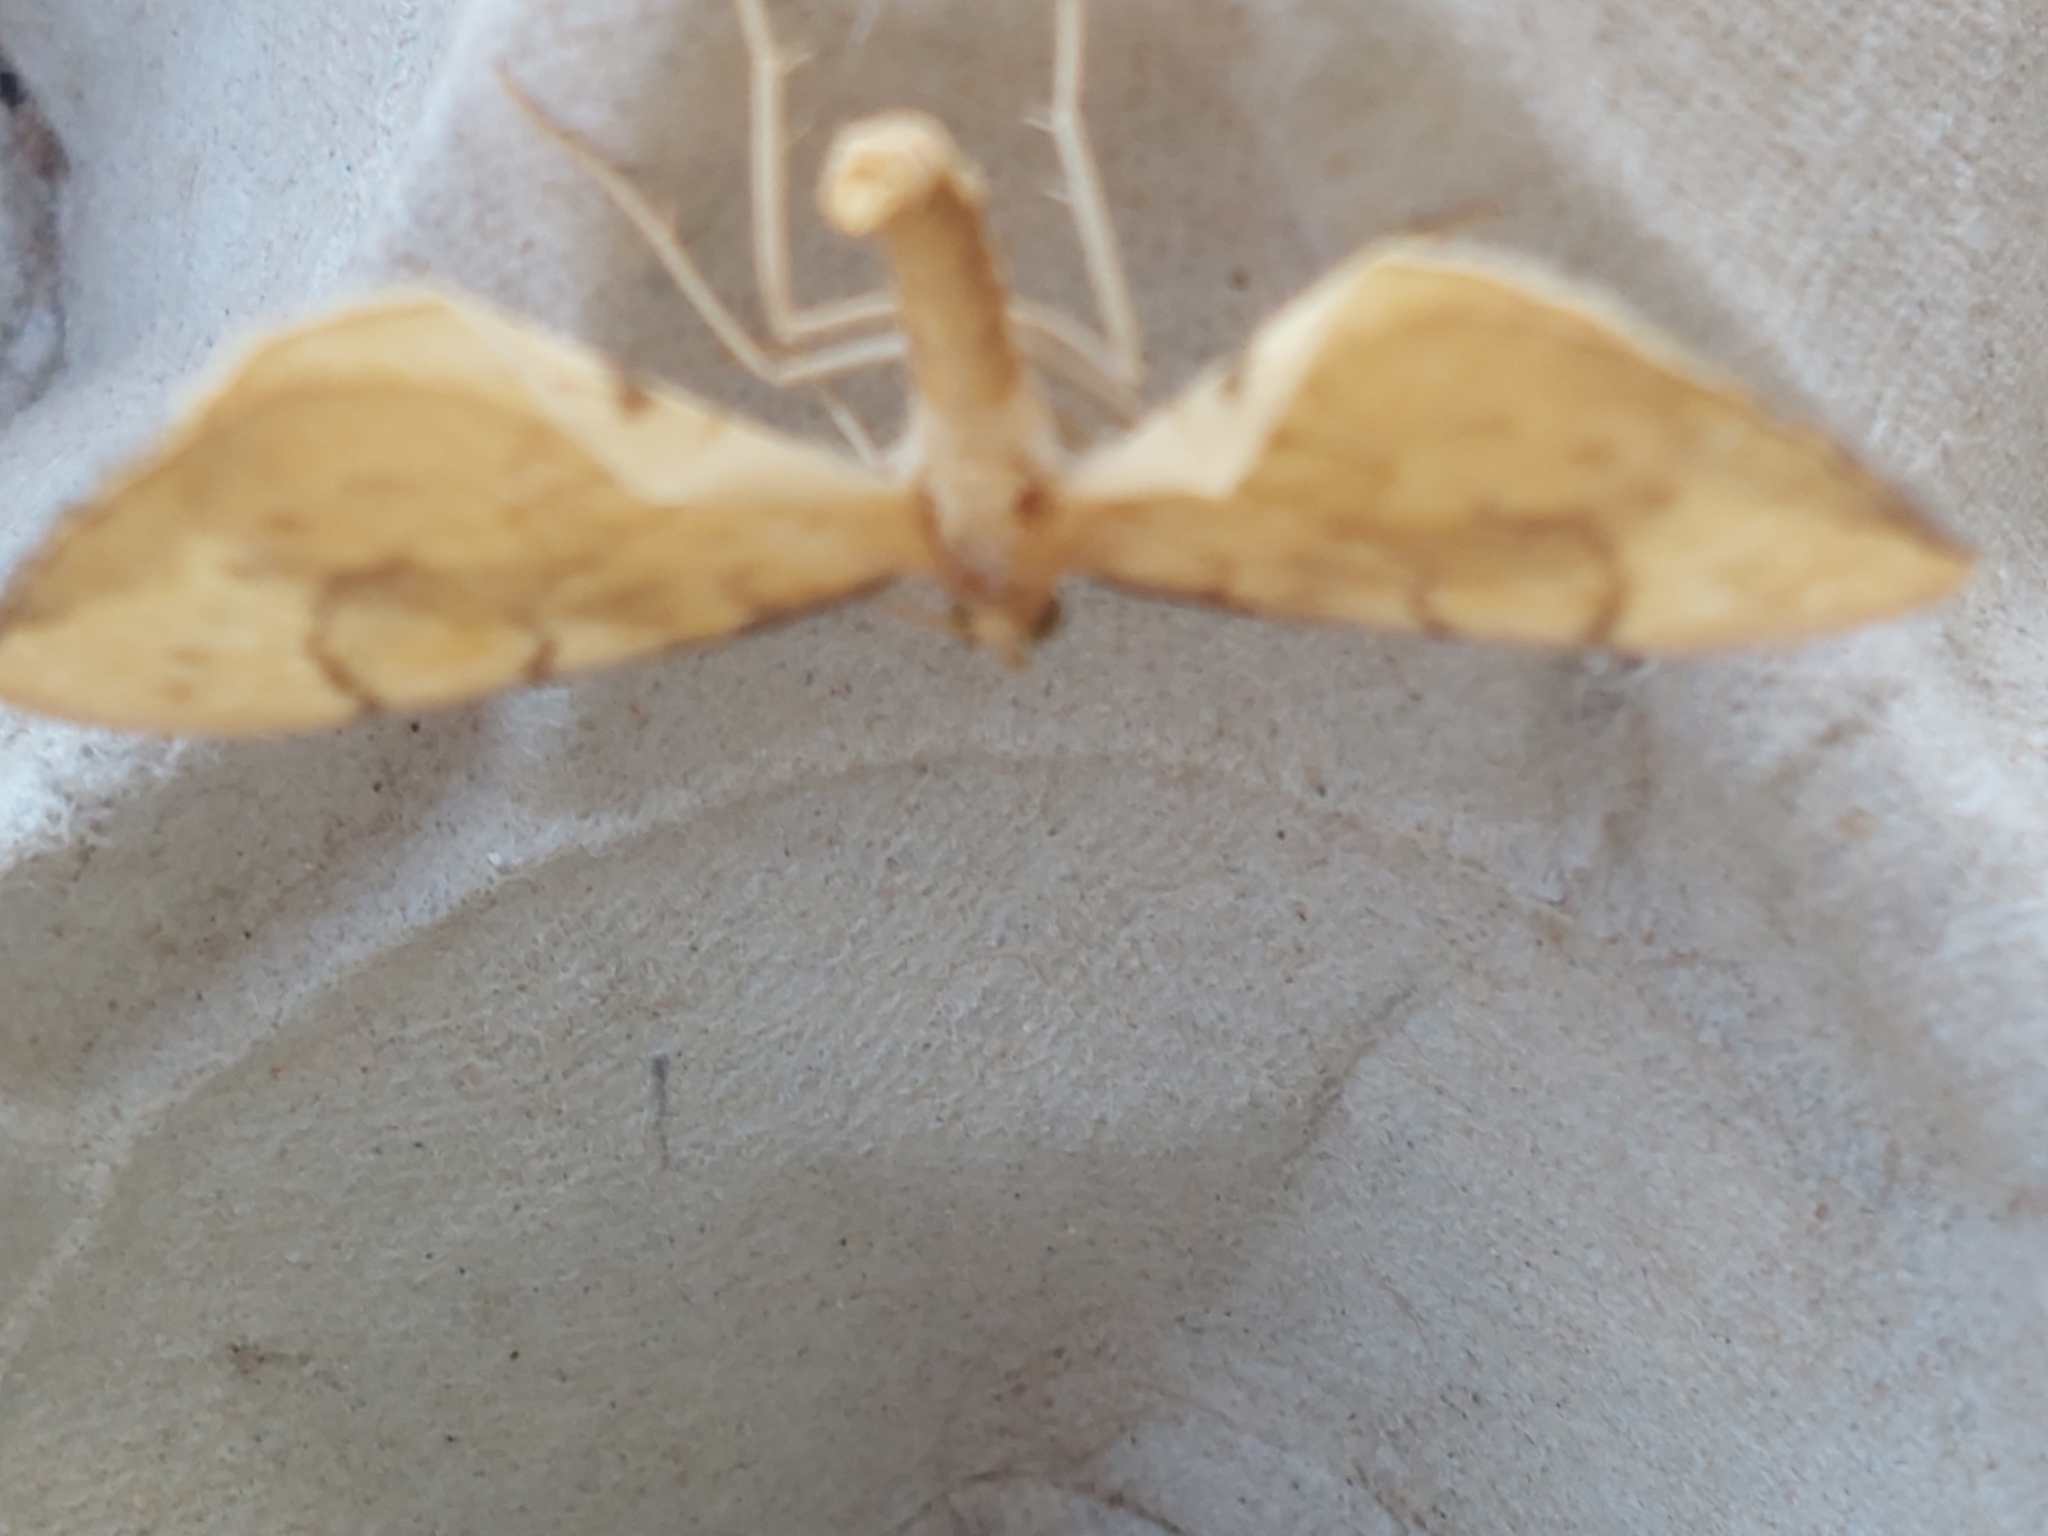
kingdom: Animalia
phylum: Arthropoda
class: Insecta
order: Lepidoptera
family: Geometridae
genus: Eulithis
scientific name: Eulithis pyraliata
